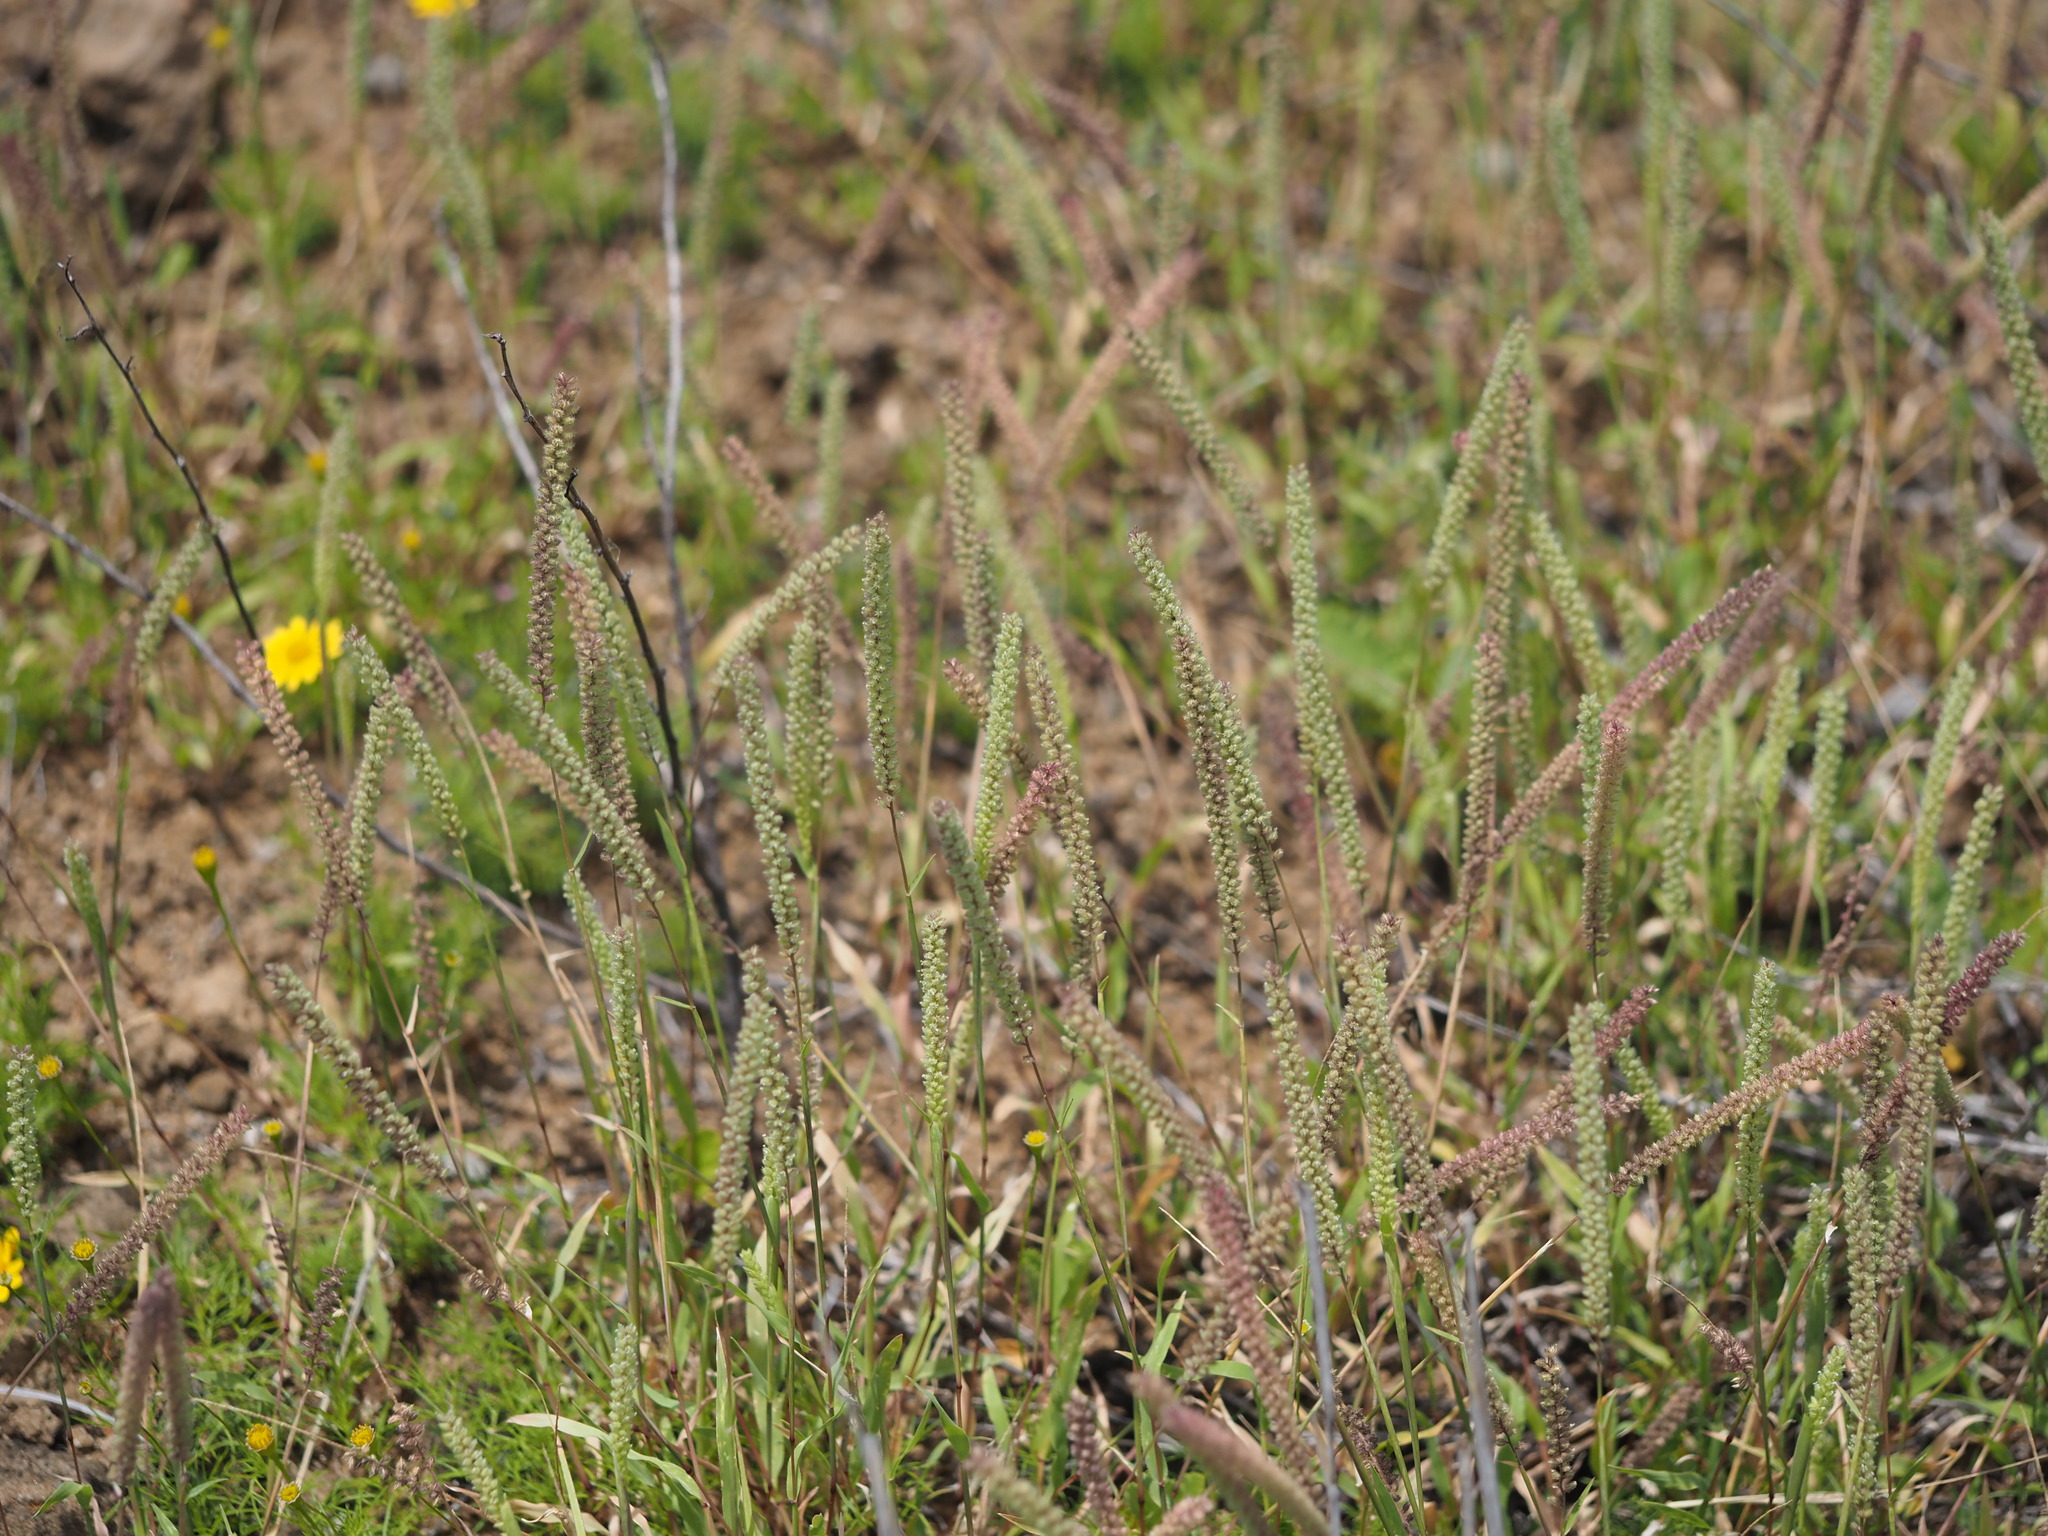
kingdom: Plantae
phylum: Tracheophyta
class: Liliopsida
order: Poales
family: Poaceae
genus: Tragus
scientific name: Tragus berteronianus
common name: African bur-grass
